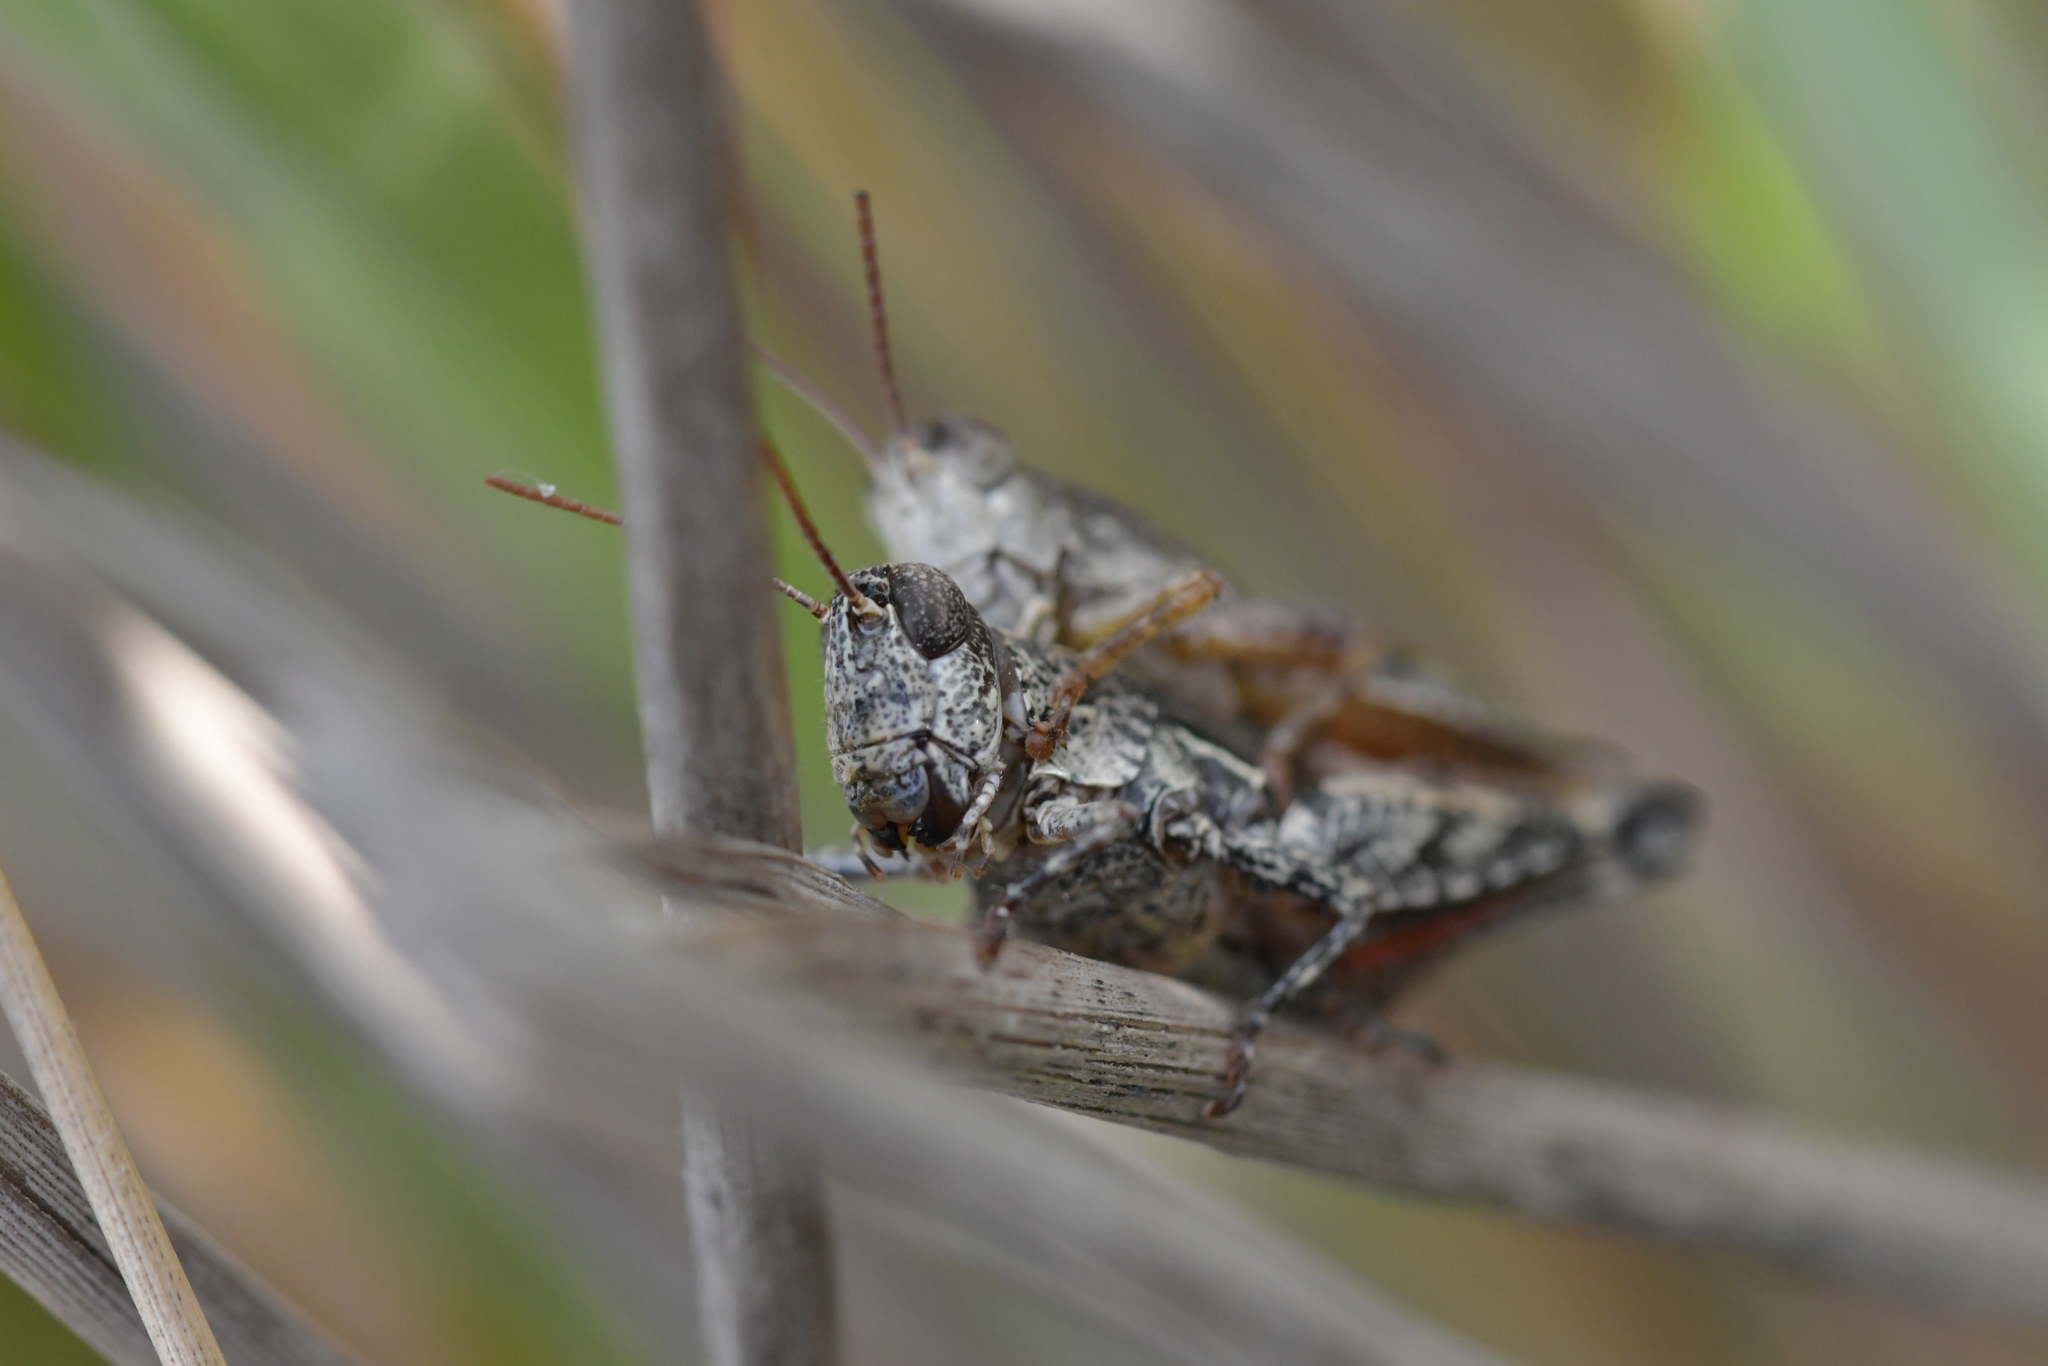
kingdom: Animalia
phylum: Arthropoda
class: Insecta
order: Orthoptera
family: Acrididae
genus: Phaulacridium
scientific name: Phaulacridium marginale
